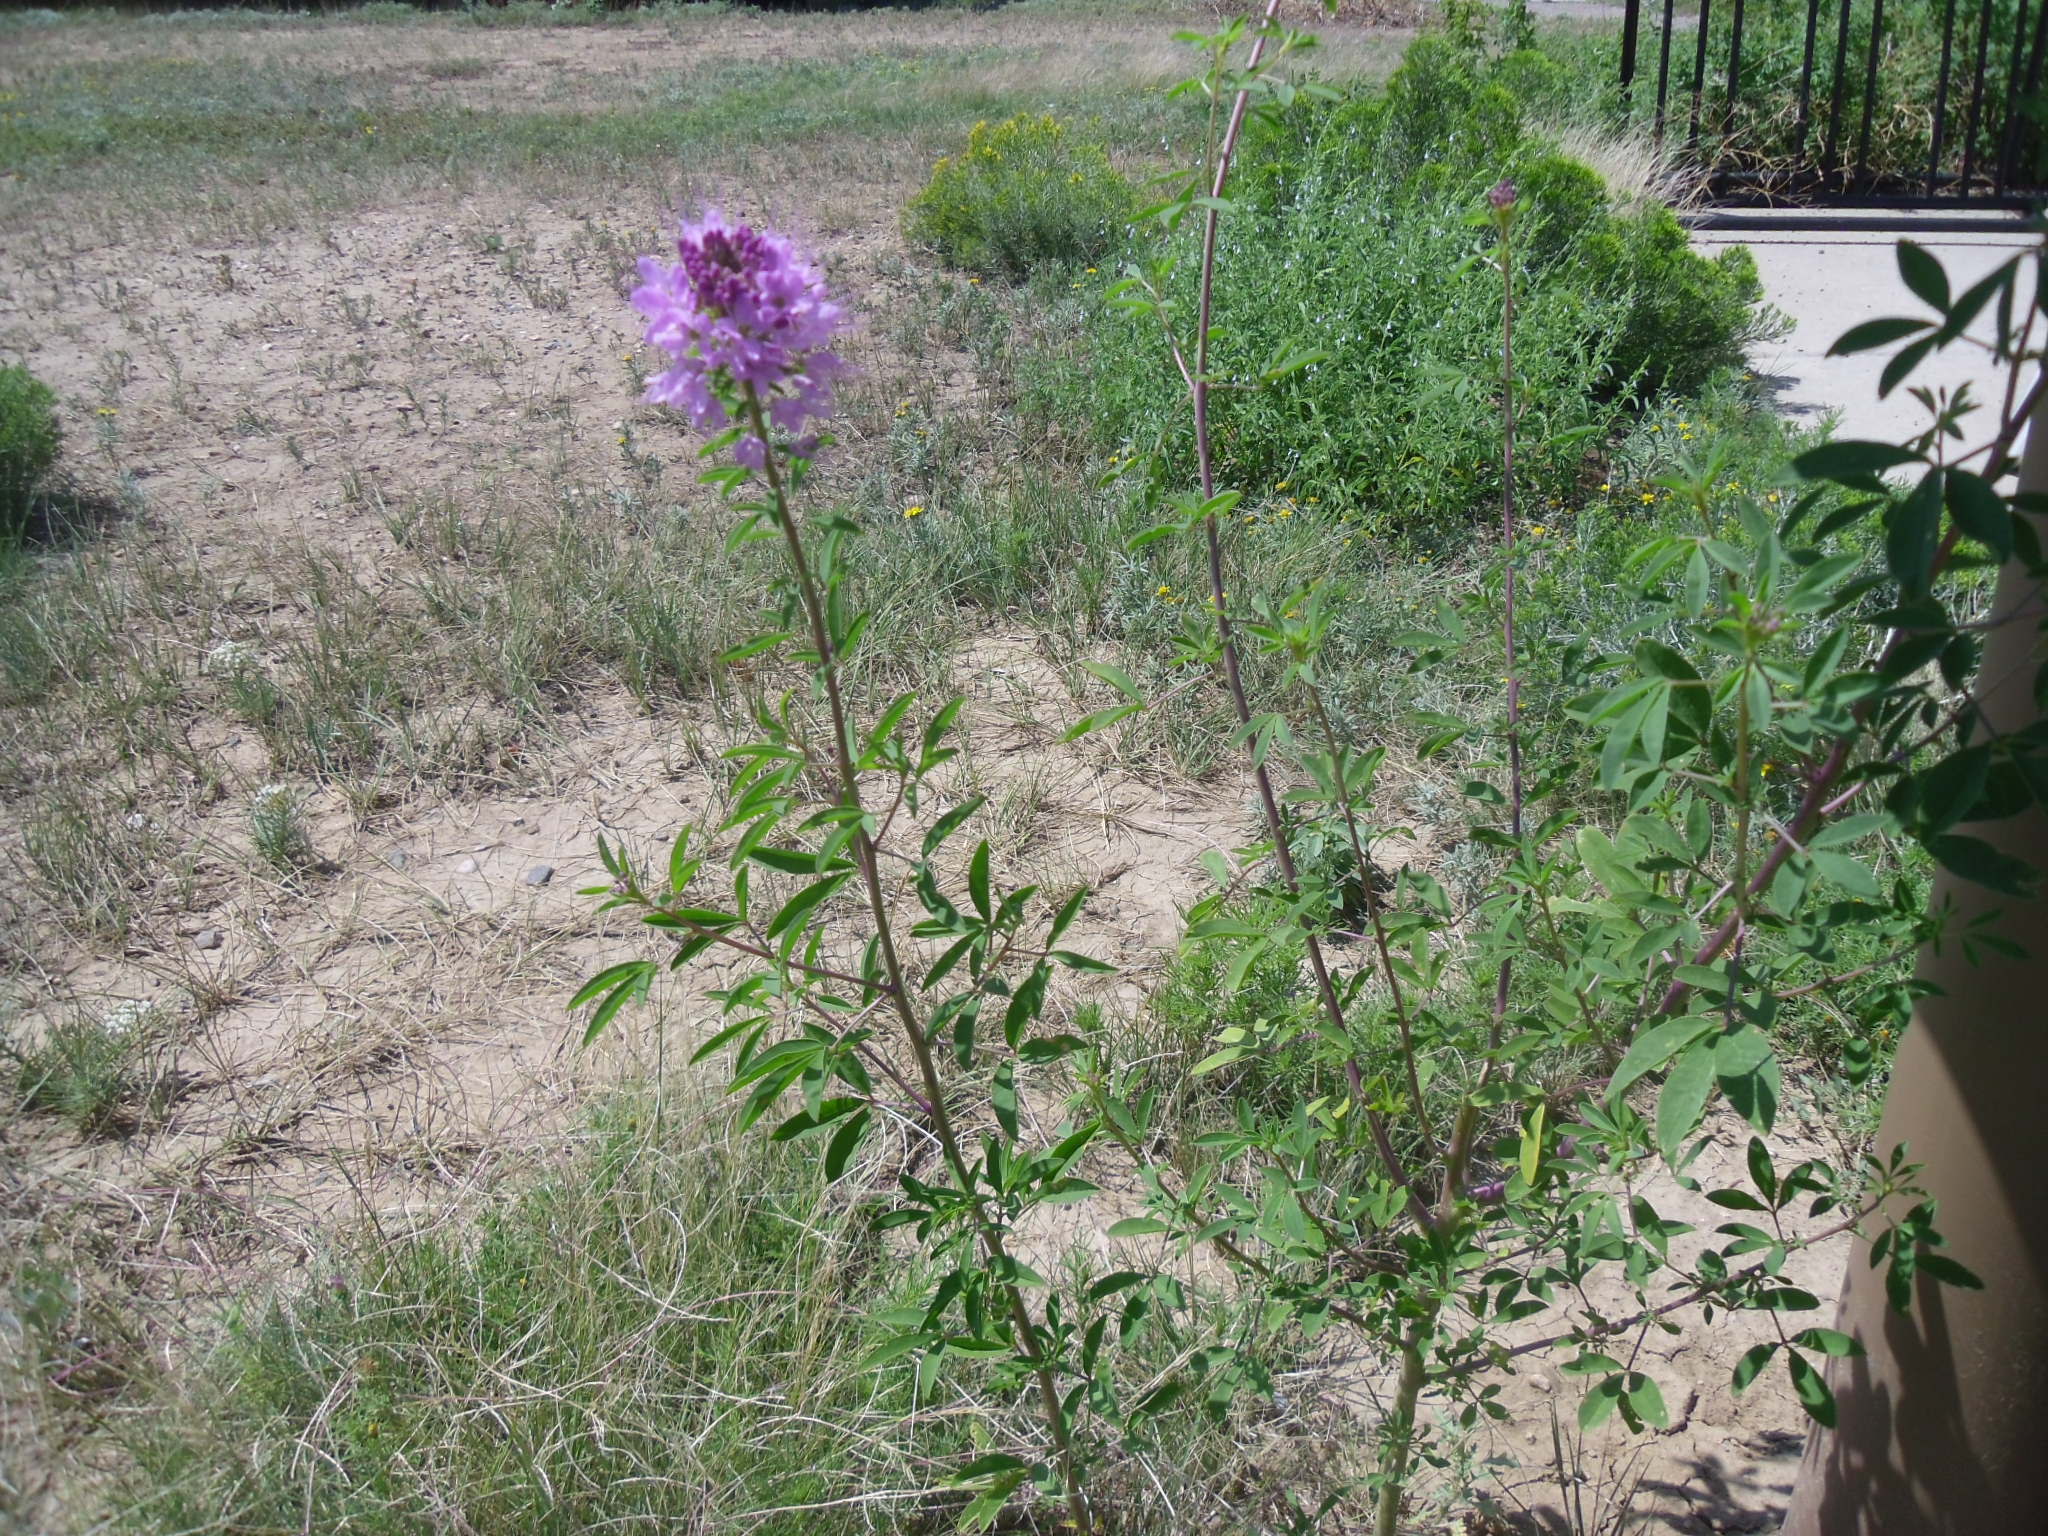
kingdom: Plantae
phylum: Tracheophyta
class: Magnoliopsida
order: Brassicales
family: Cleomaceae
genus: Cleomella
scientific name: Cleomella serrulata
